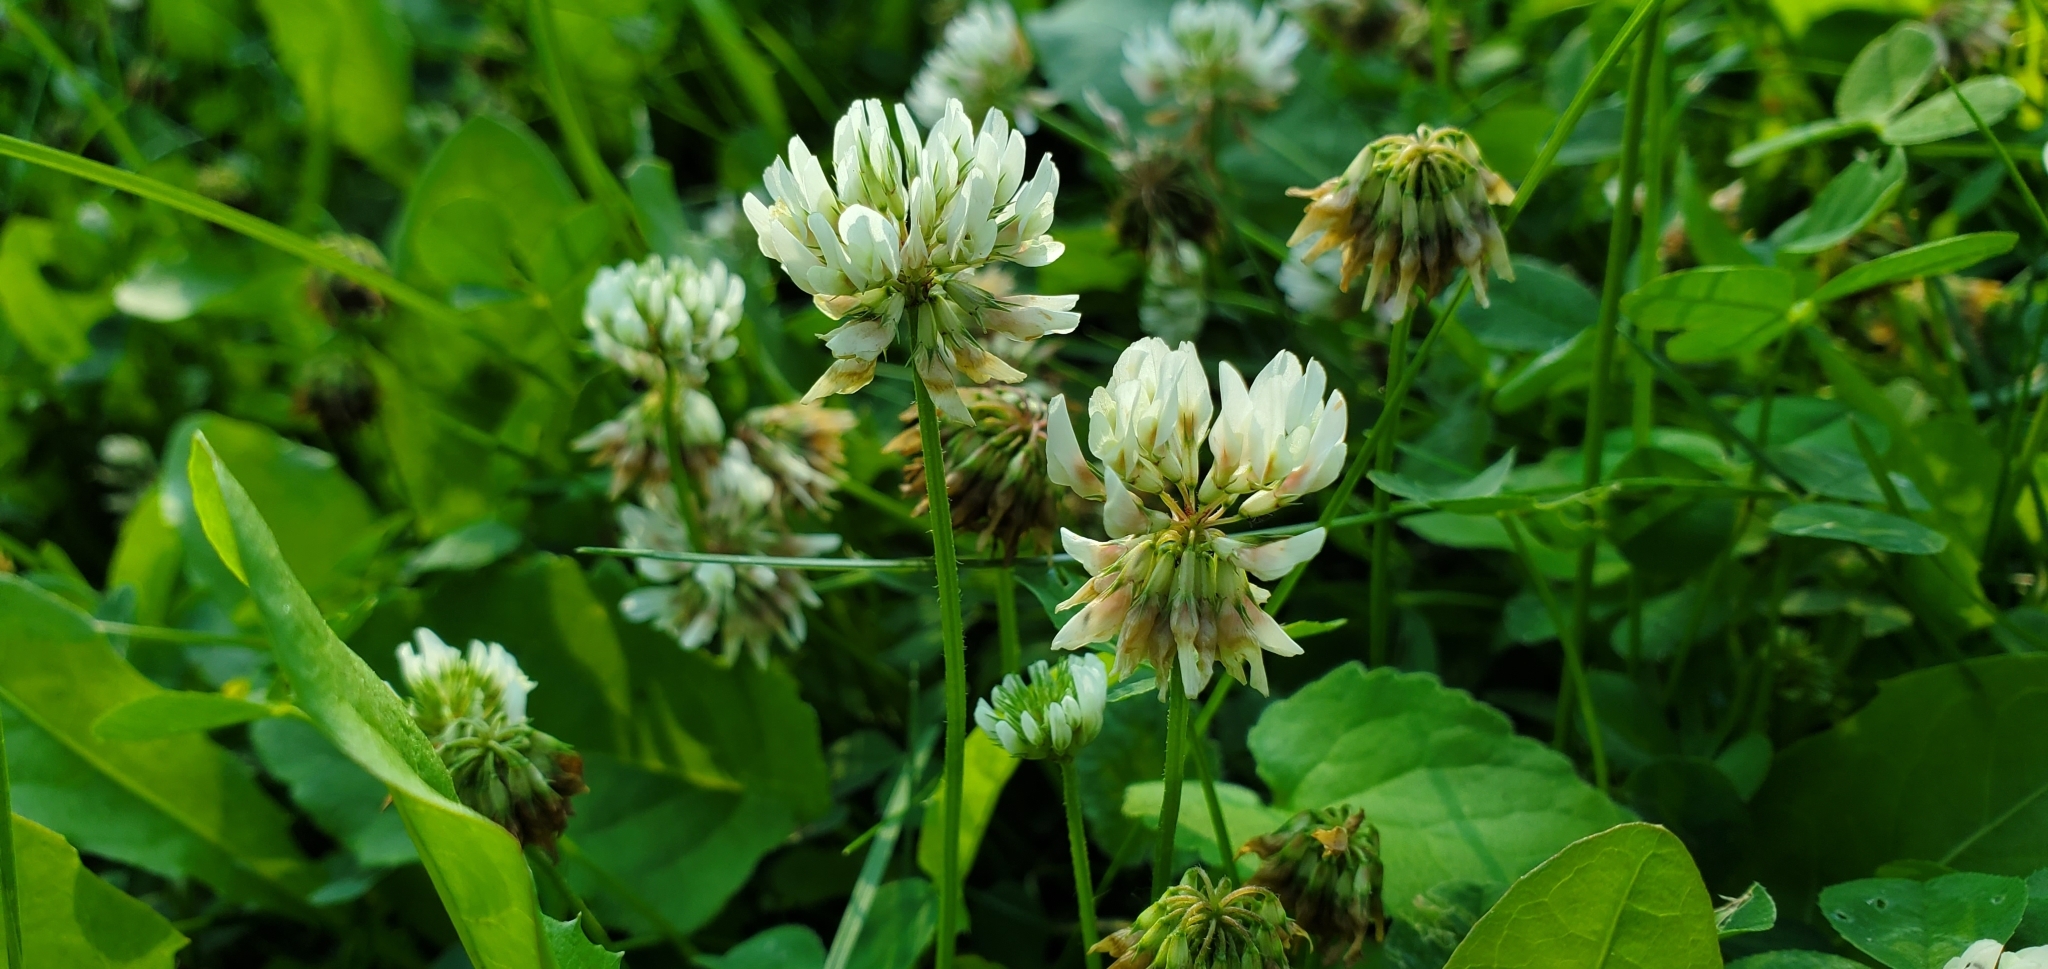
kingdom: Plantae
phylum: Tracheophyta
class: Magnoliopsida
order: Fabales
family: Fabaceae
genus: Trifolium
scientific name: Trifolium repens
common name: White clover
